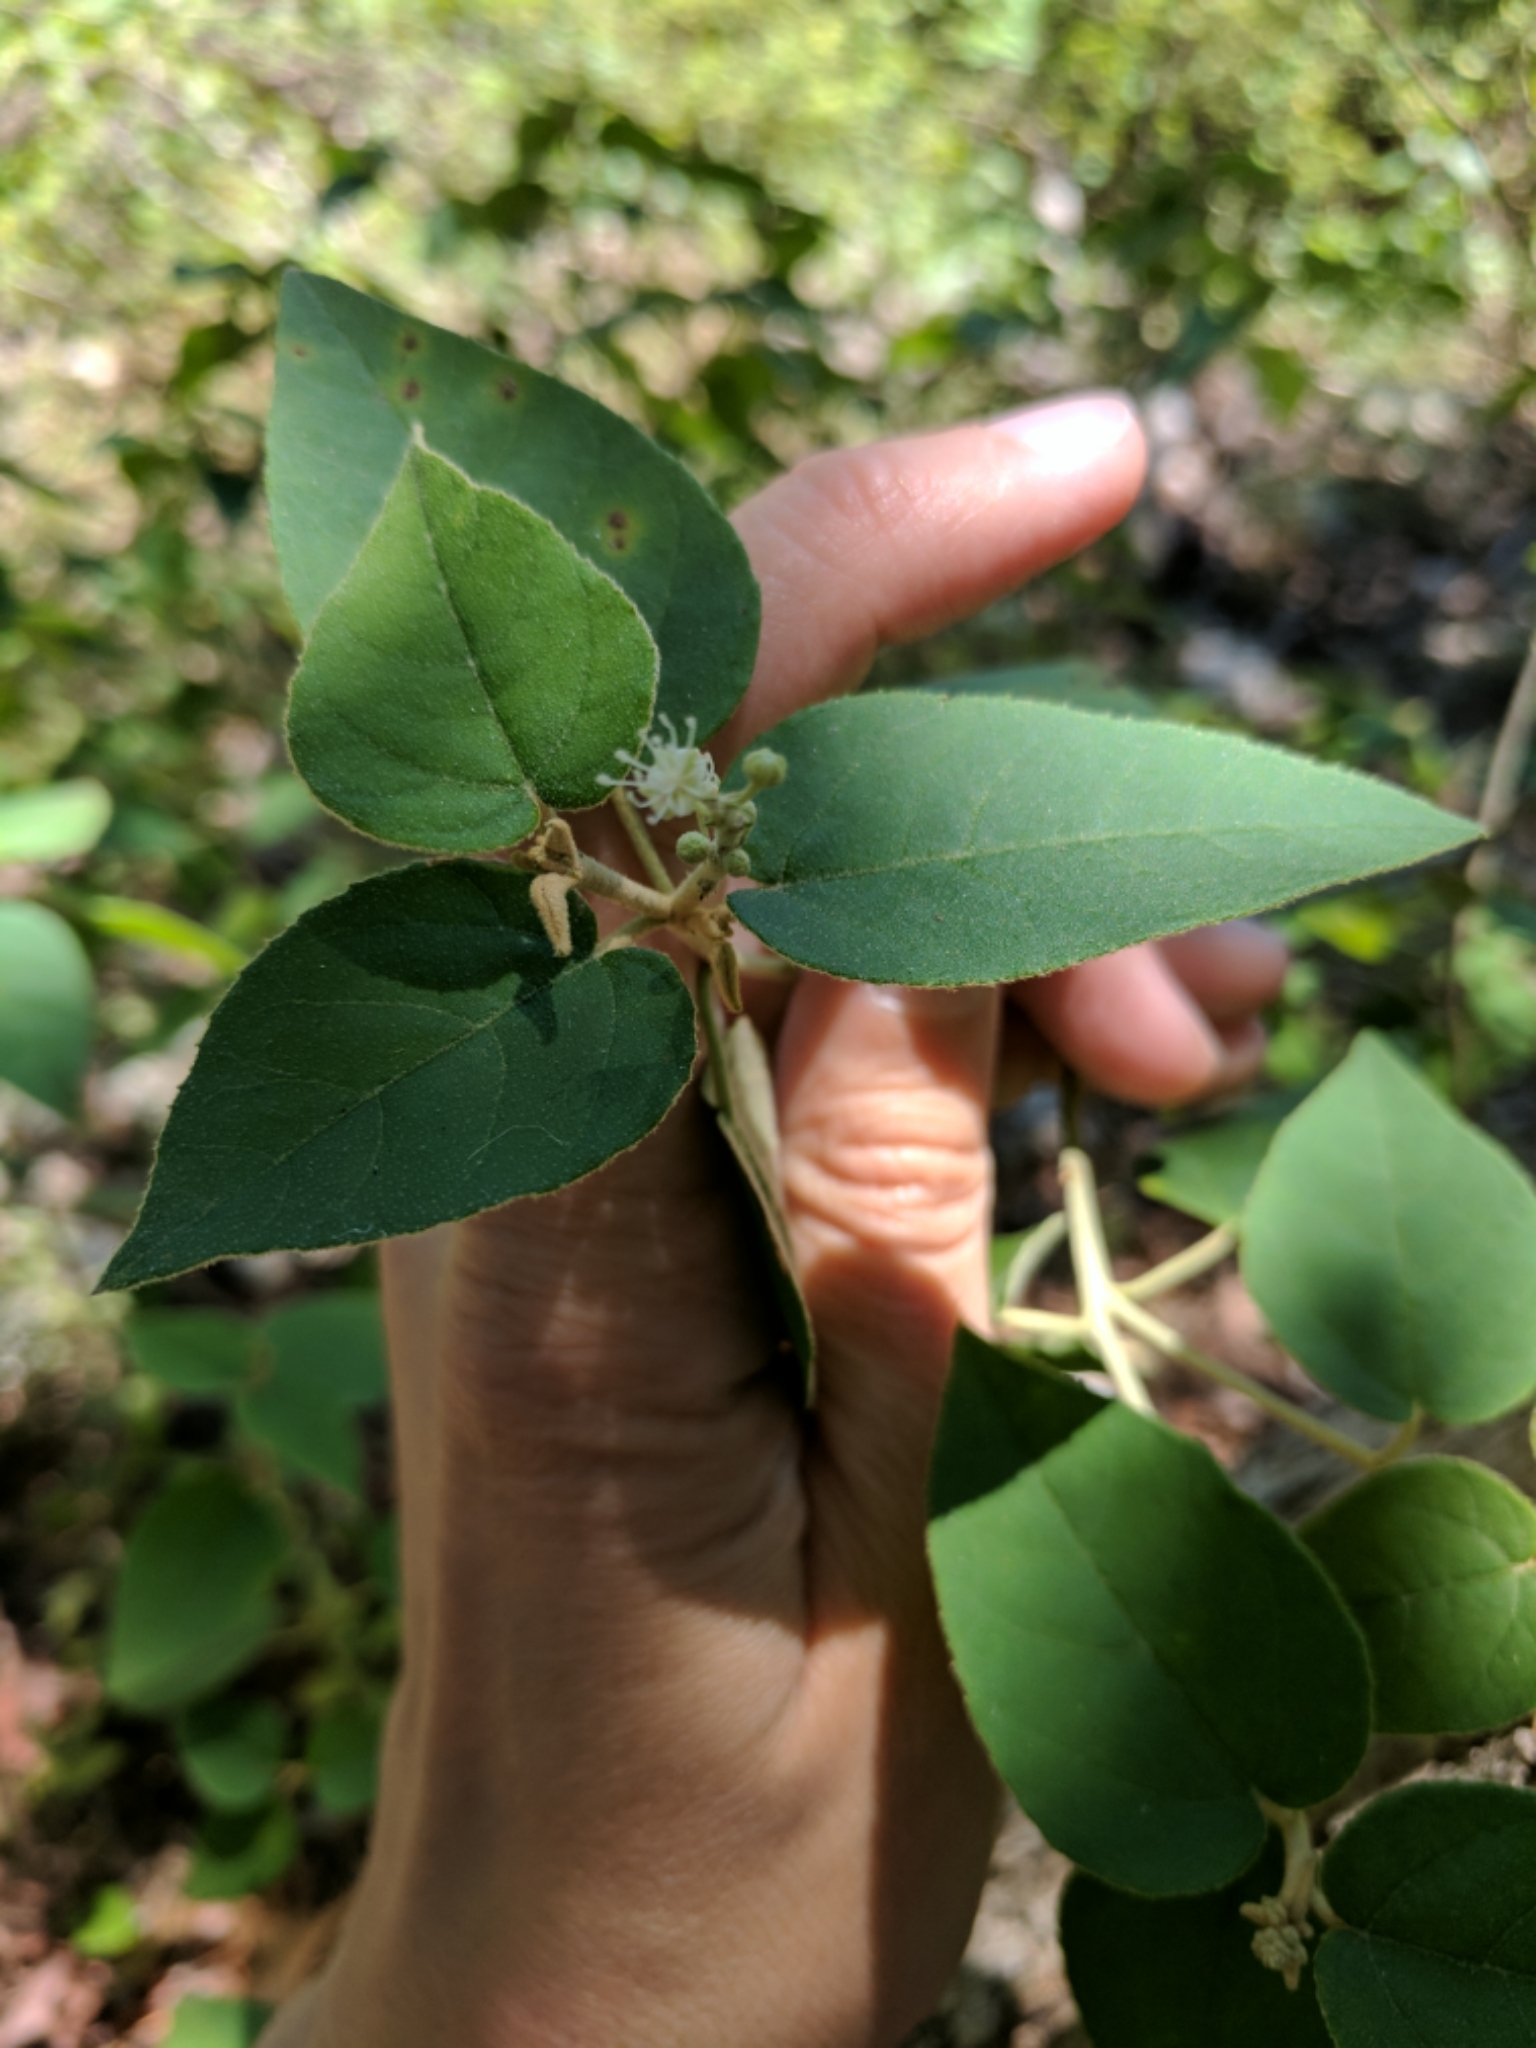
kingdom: Plantae
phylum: Tracheophyta
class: Magnoliopsida
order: Malpighiales
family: Euphorbiaceae
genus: Croton
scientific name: Croton fruticulosus
